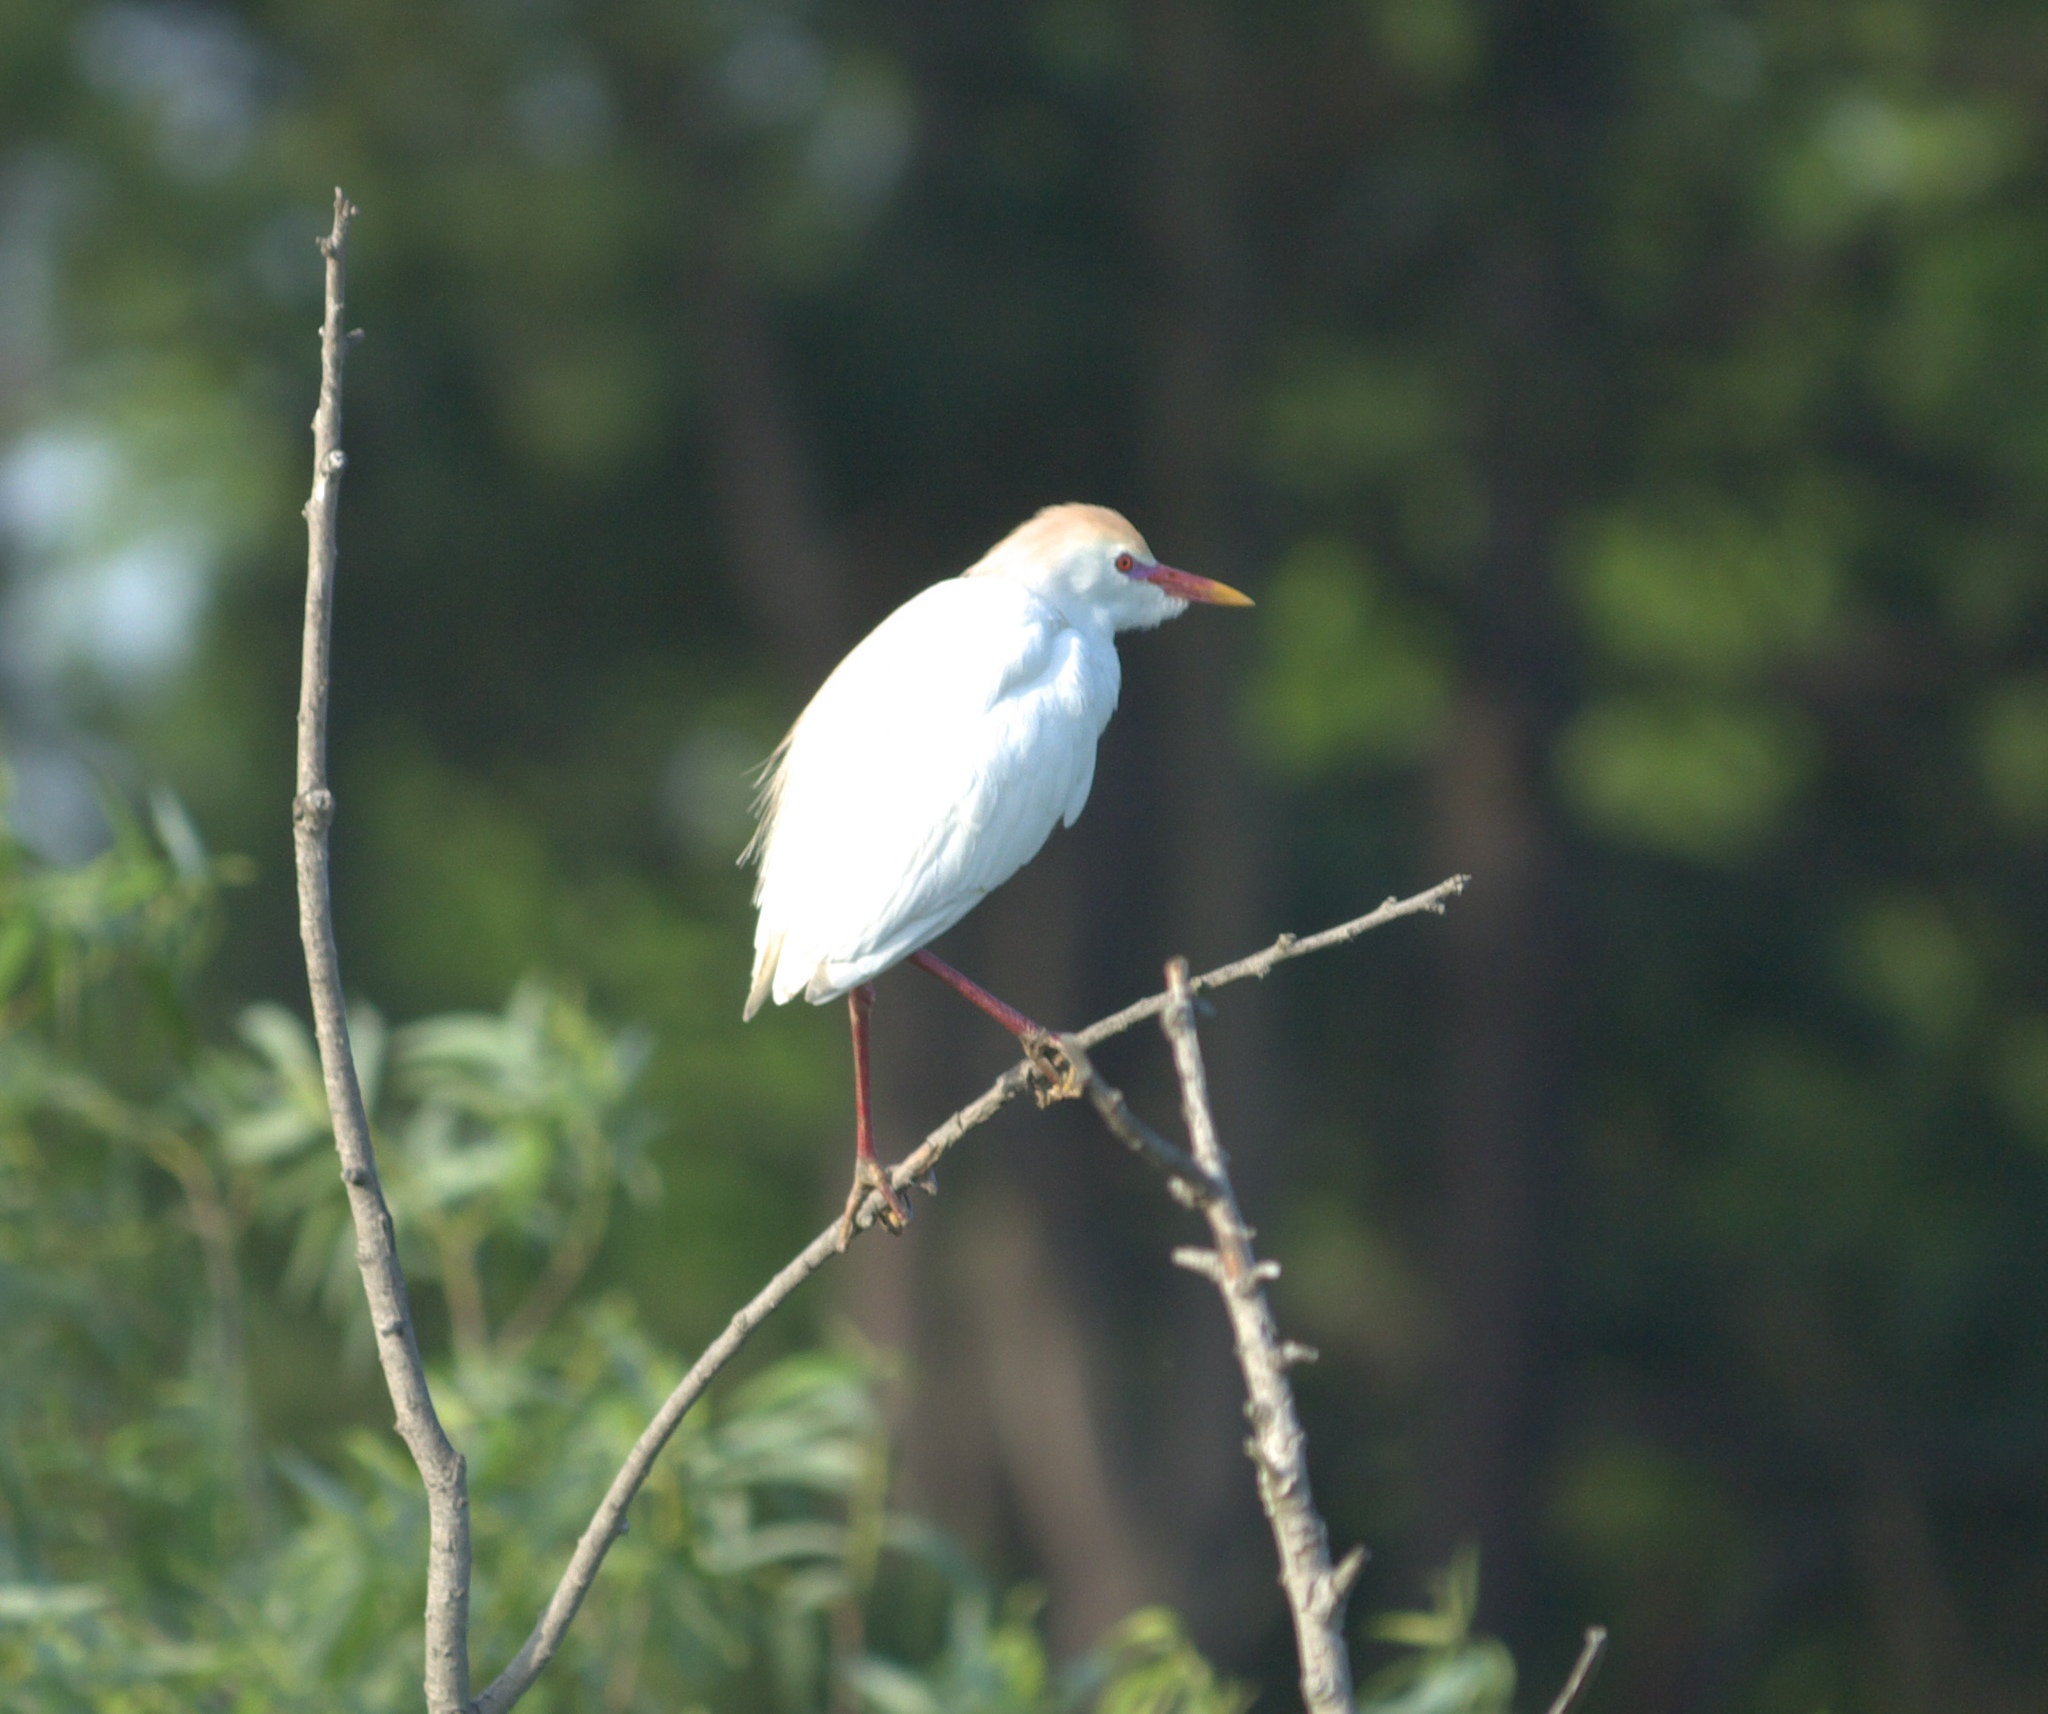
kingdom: Animalia
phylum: Chordata
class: Aves
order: Pelecaniformes
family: Ardeidae
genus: Bubulcus
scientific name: Bubulcus ibis
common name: Cattle egret
